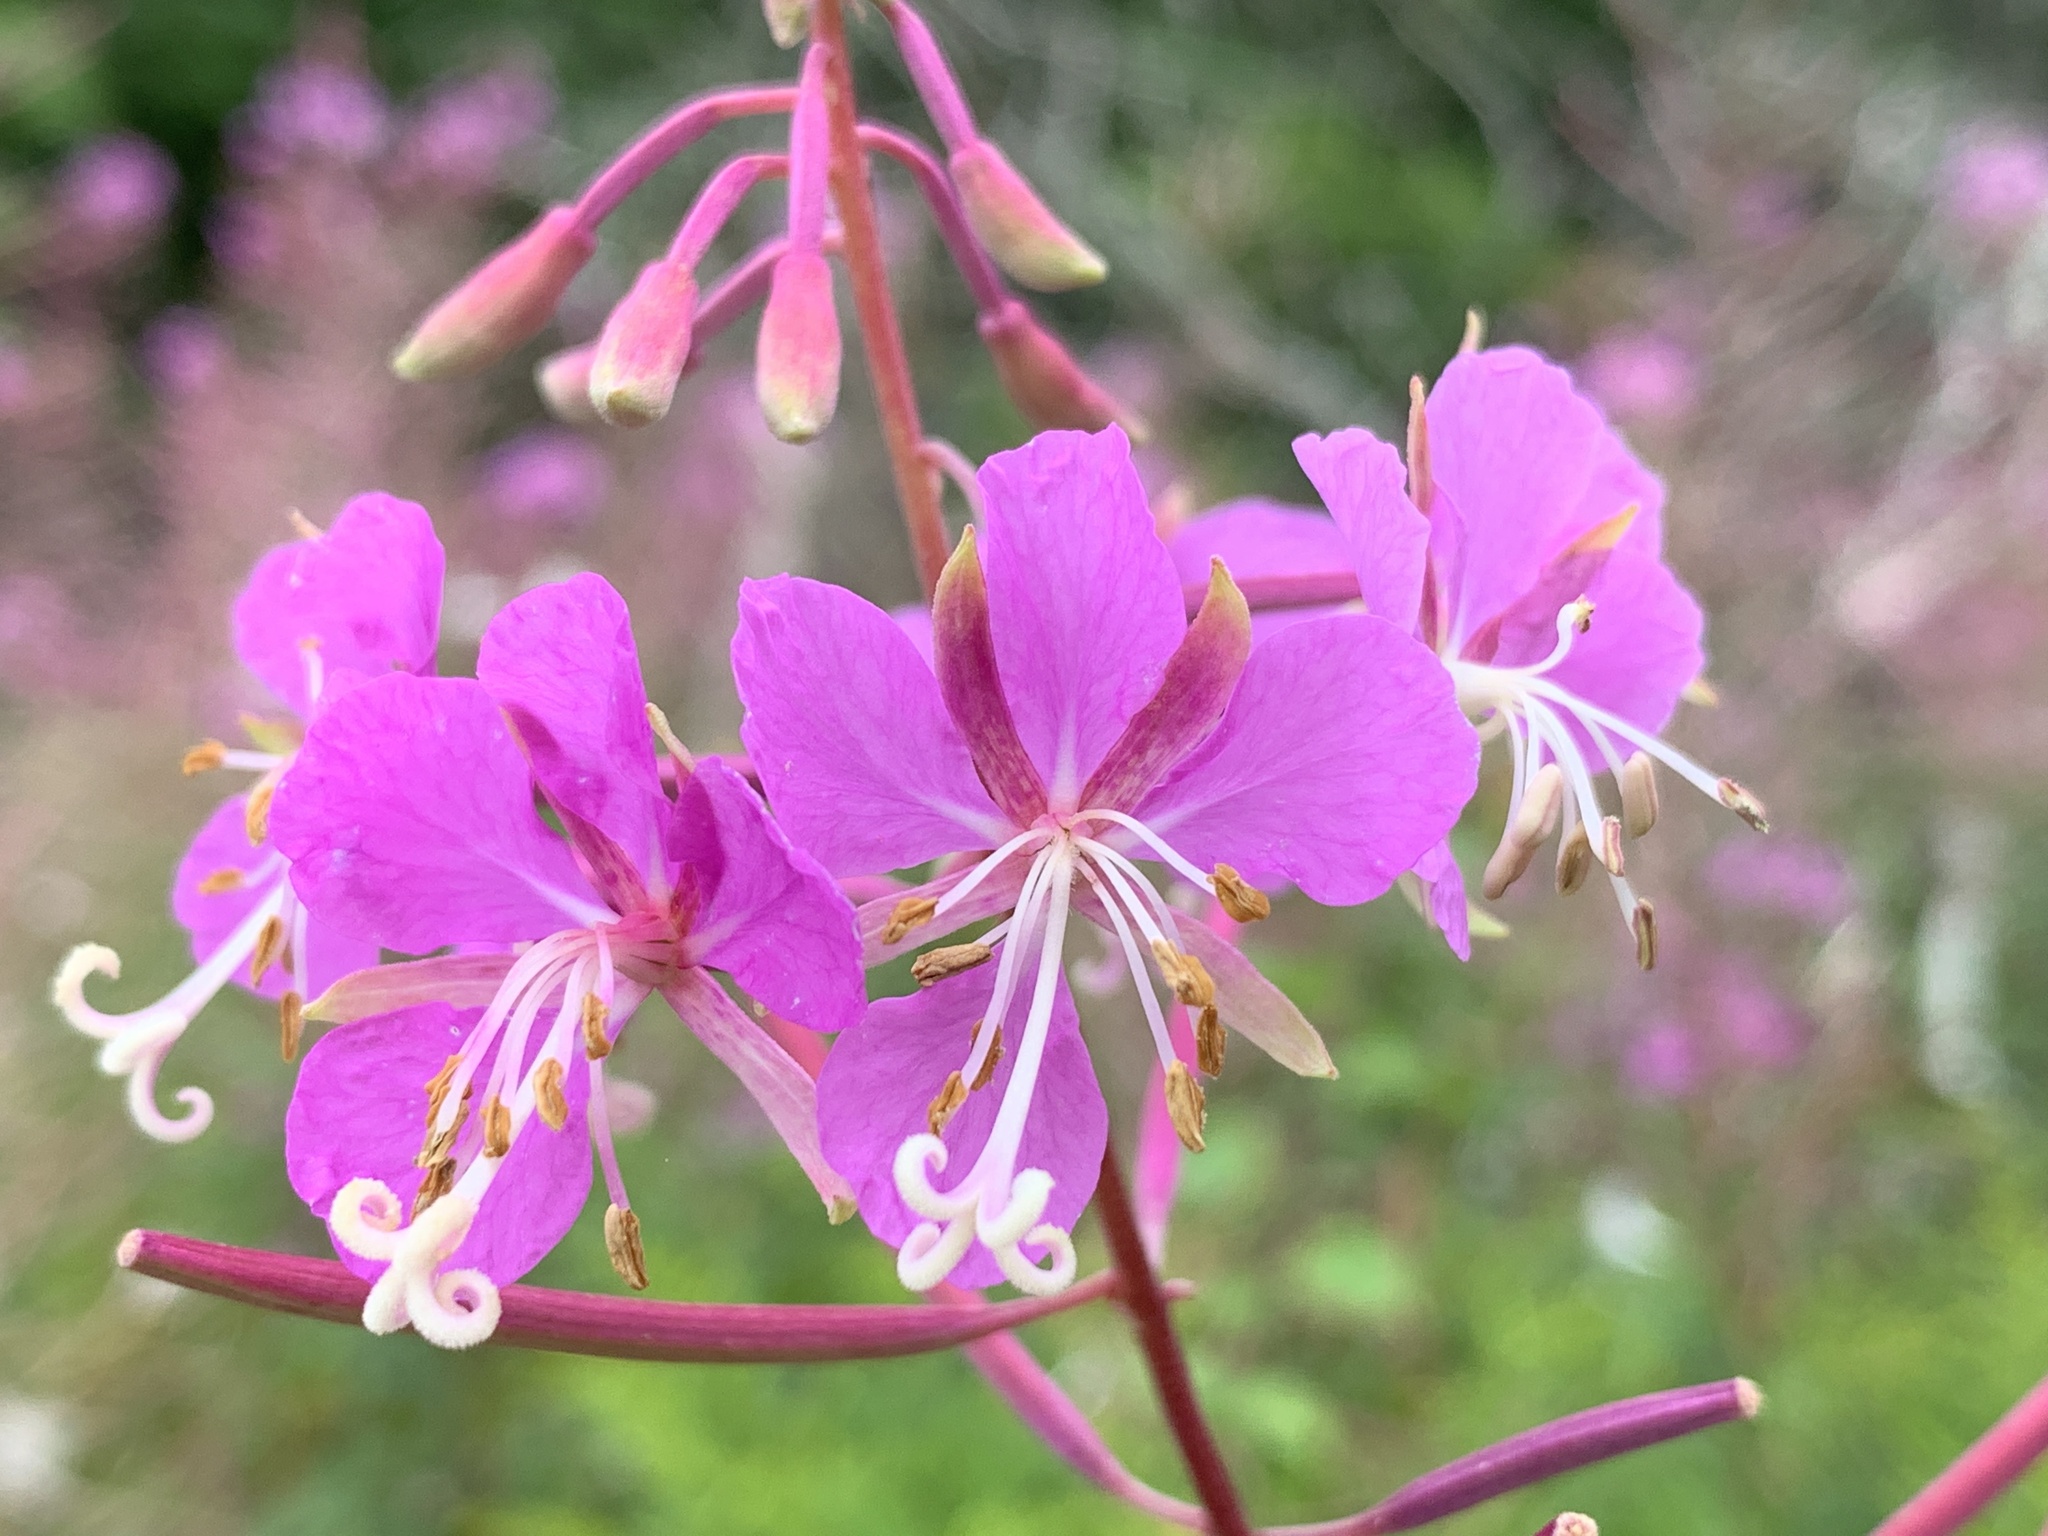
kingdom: Plantae
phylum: Tracheophyta
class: Magnoliopsida
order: Myrtales
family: Onagraceae
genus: Chamaenerion
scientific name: Chamaenerion angustifolium
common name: Fireweed
